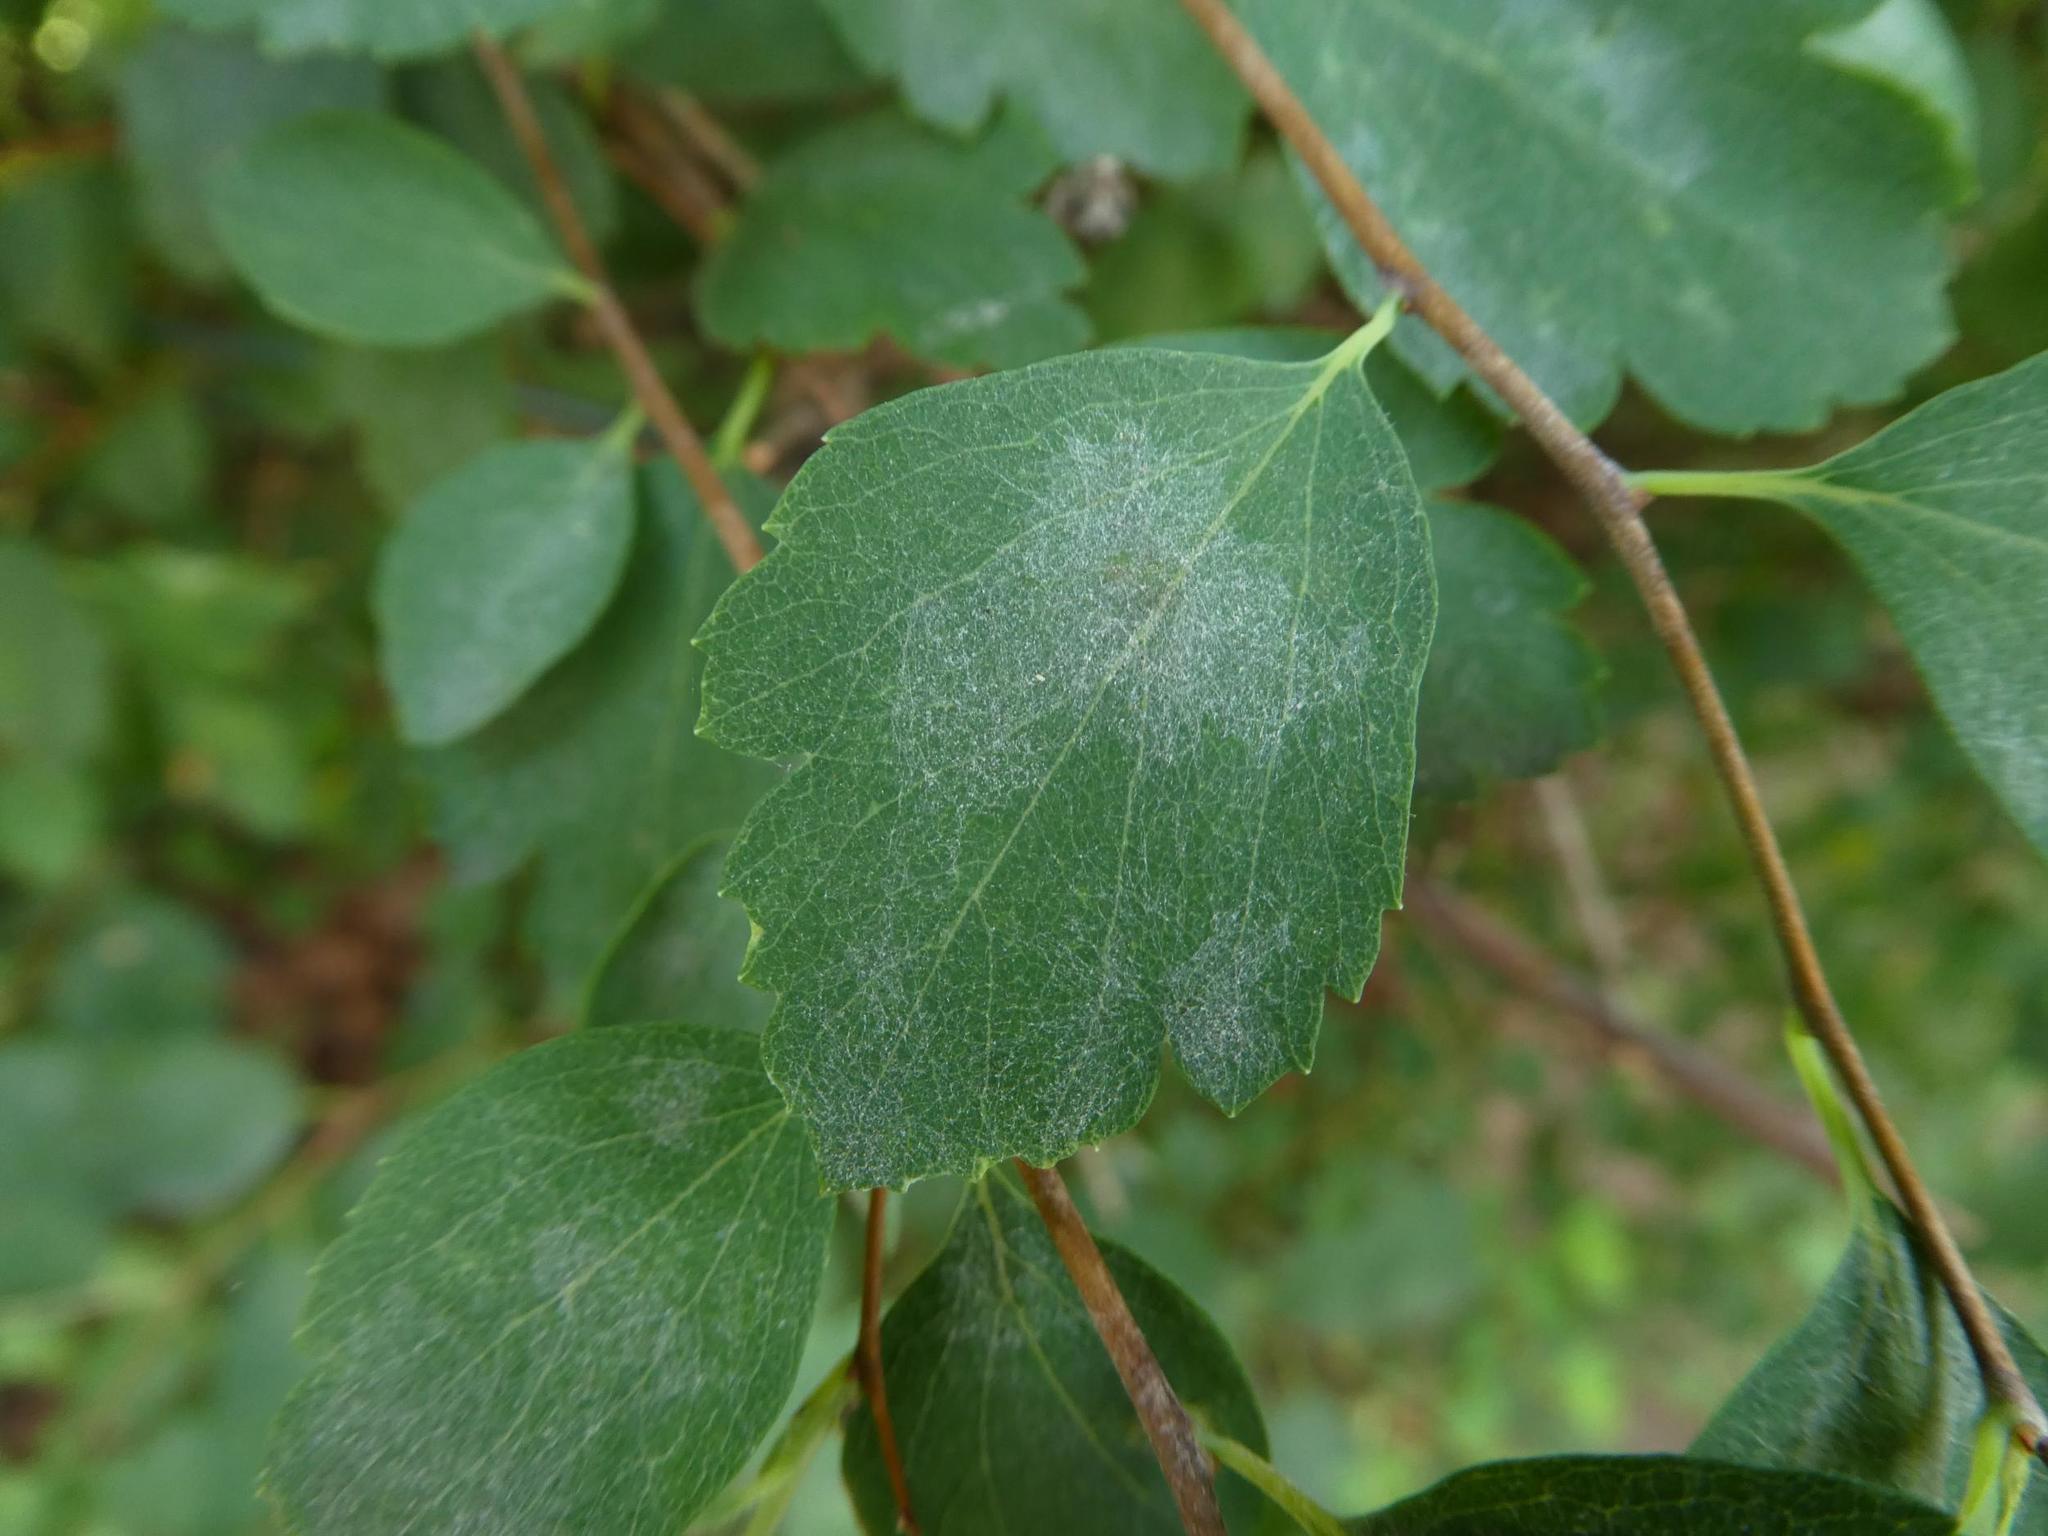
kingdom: Fungi
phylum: Ascomycota
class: Leotiomycetes
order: Helotiales
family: Erysiphaceae
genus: Podosphaera
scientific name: Podosphaera spiraeae
